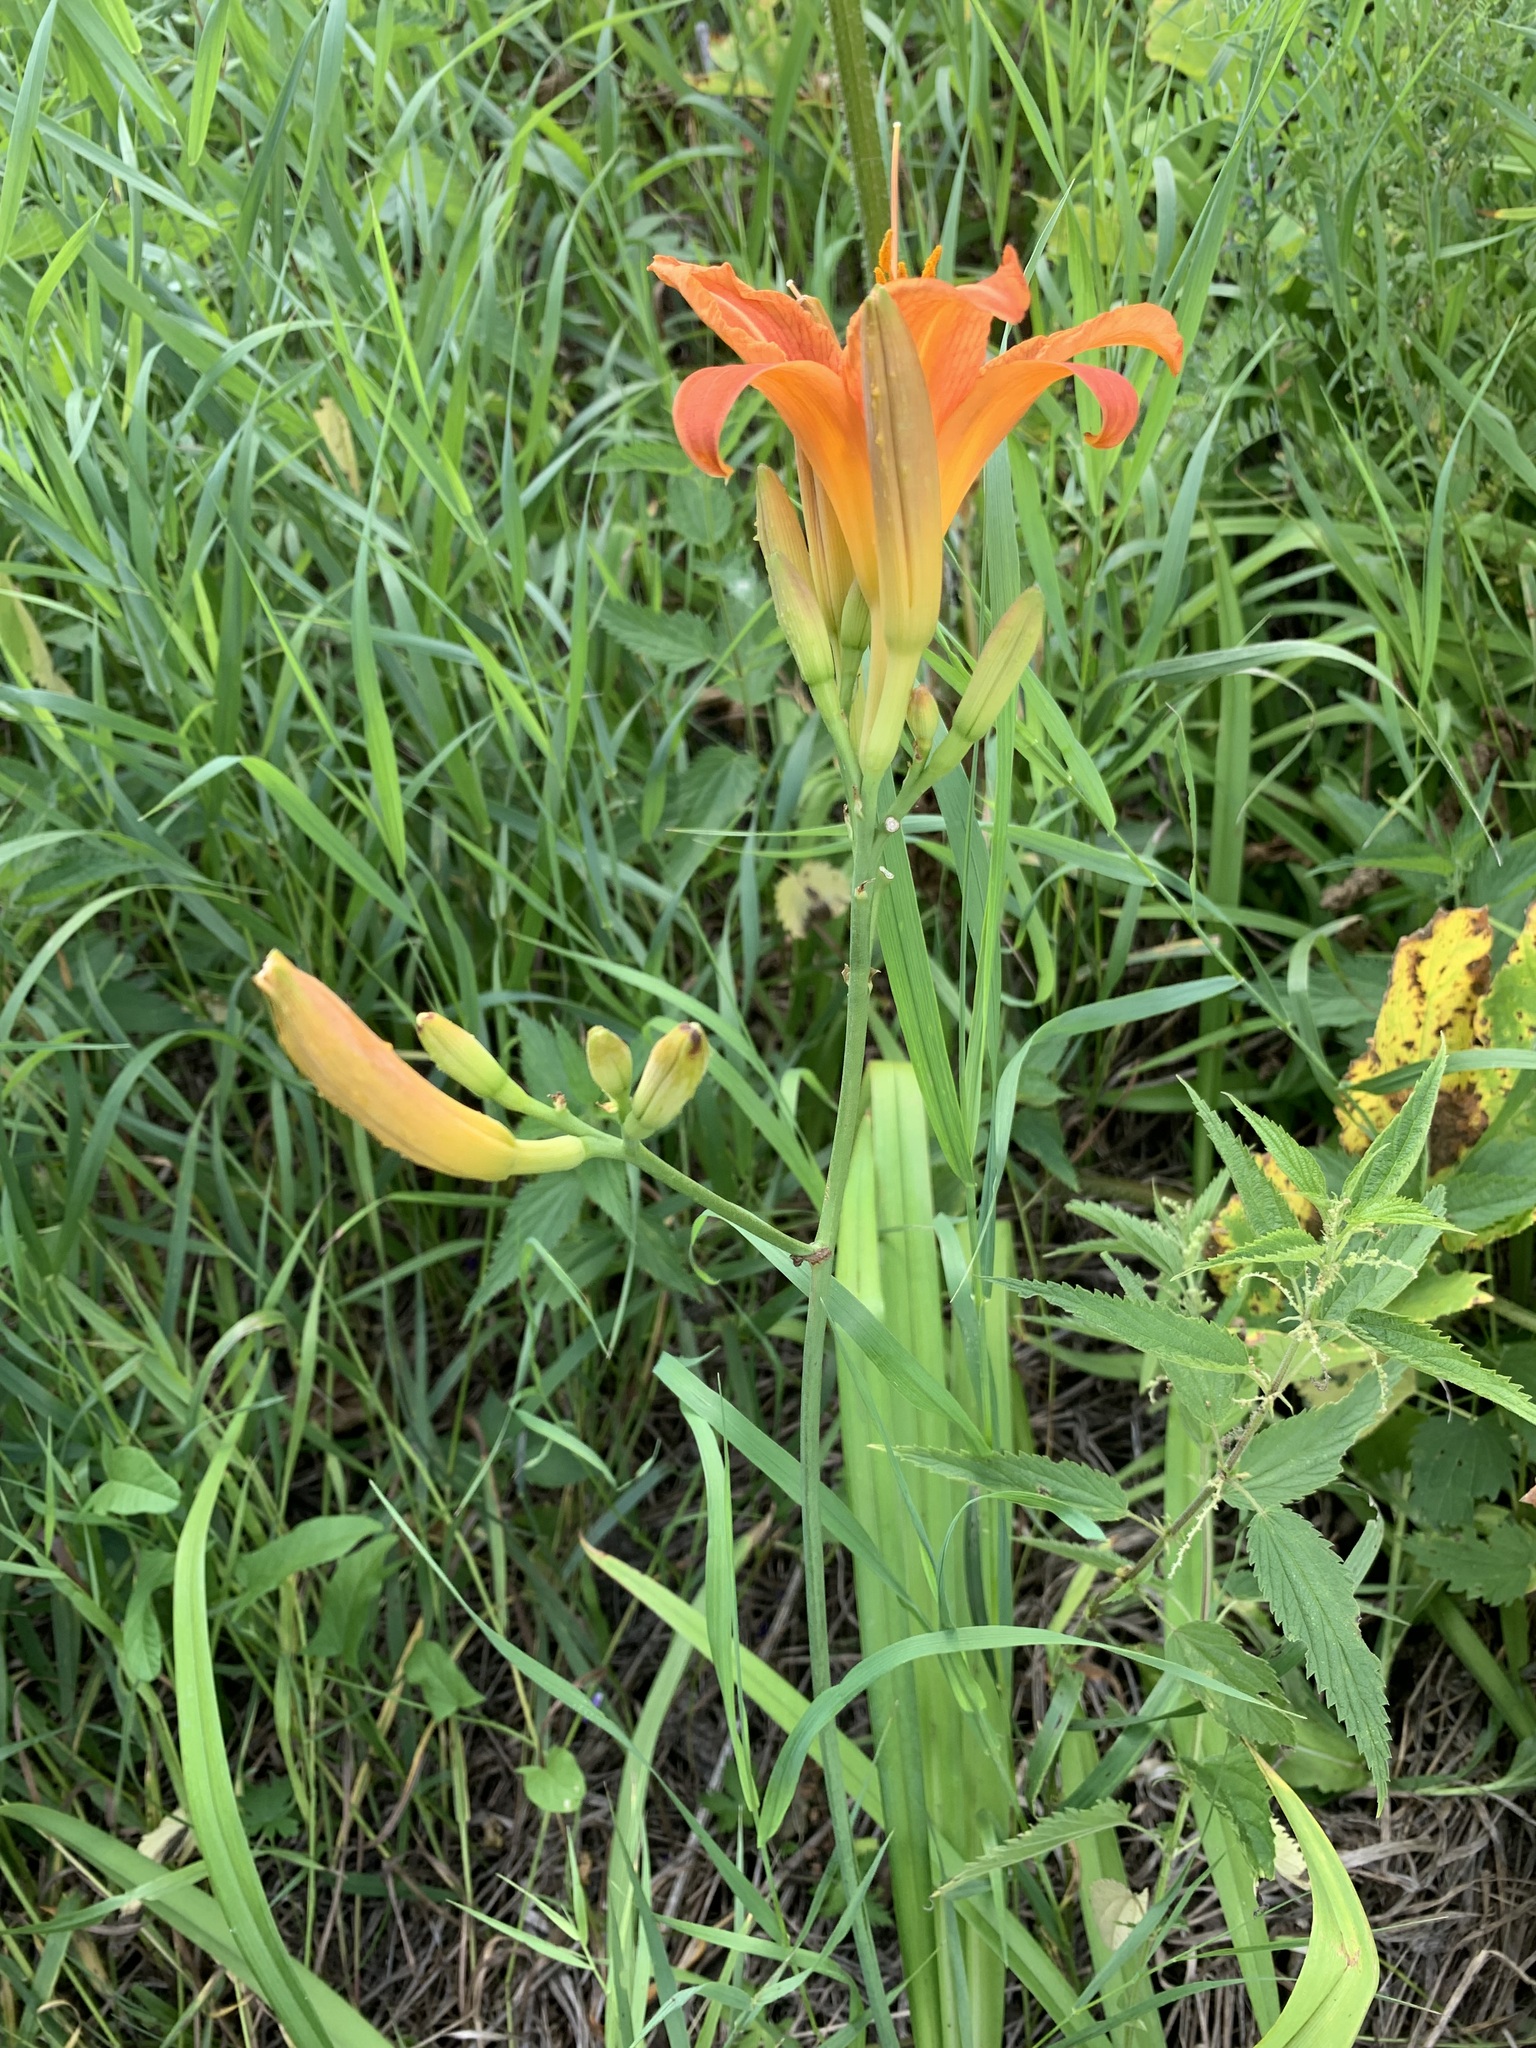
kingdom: Plantae
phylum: Tracheophyta
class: Liliopsida
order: Asparagales
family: Asphodelaceae
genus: Hemerocallis
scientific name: Hemerocallis fulva
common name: Orange day-lily
